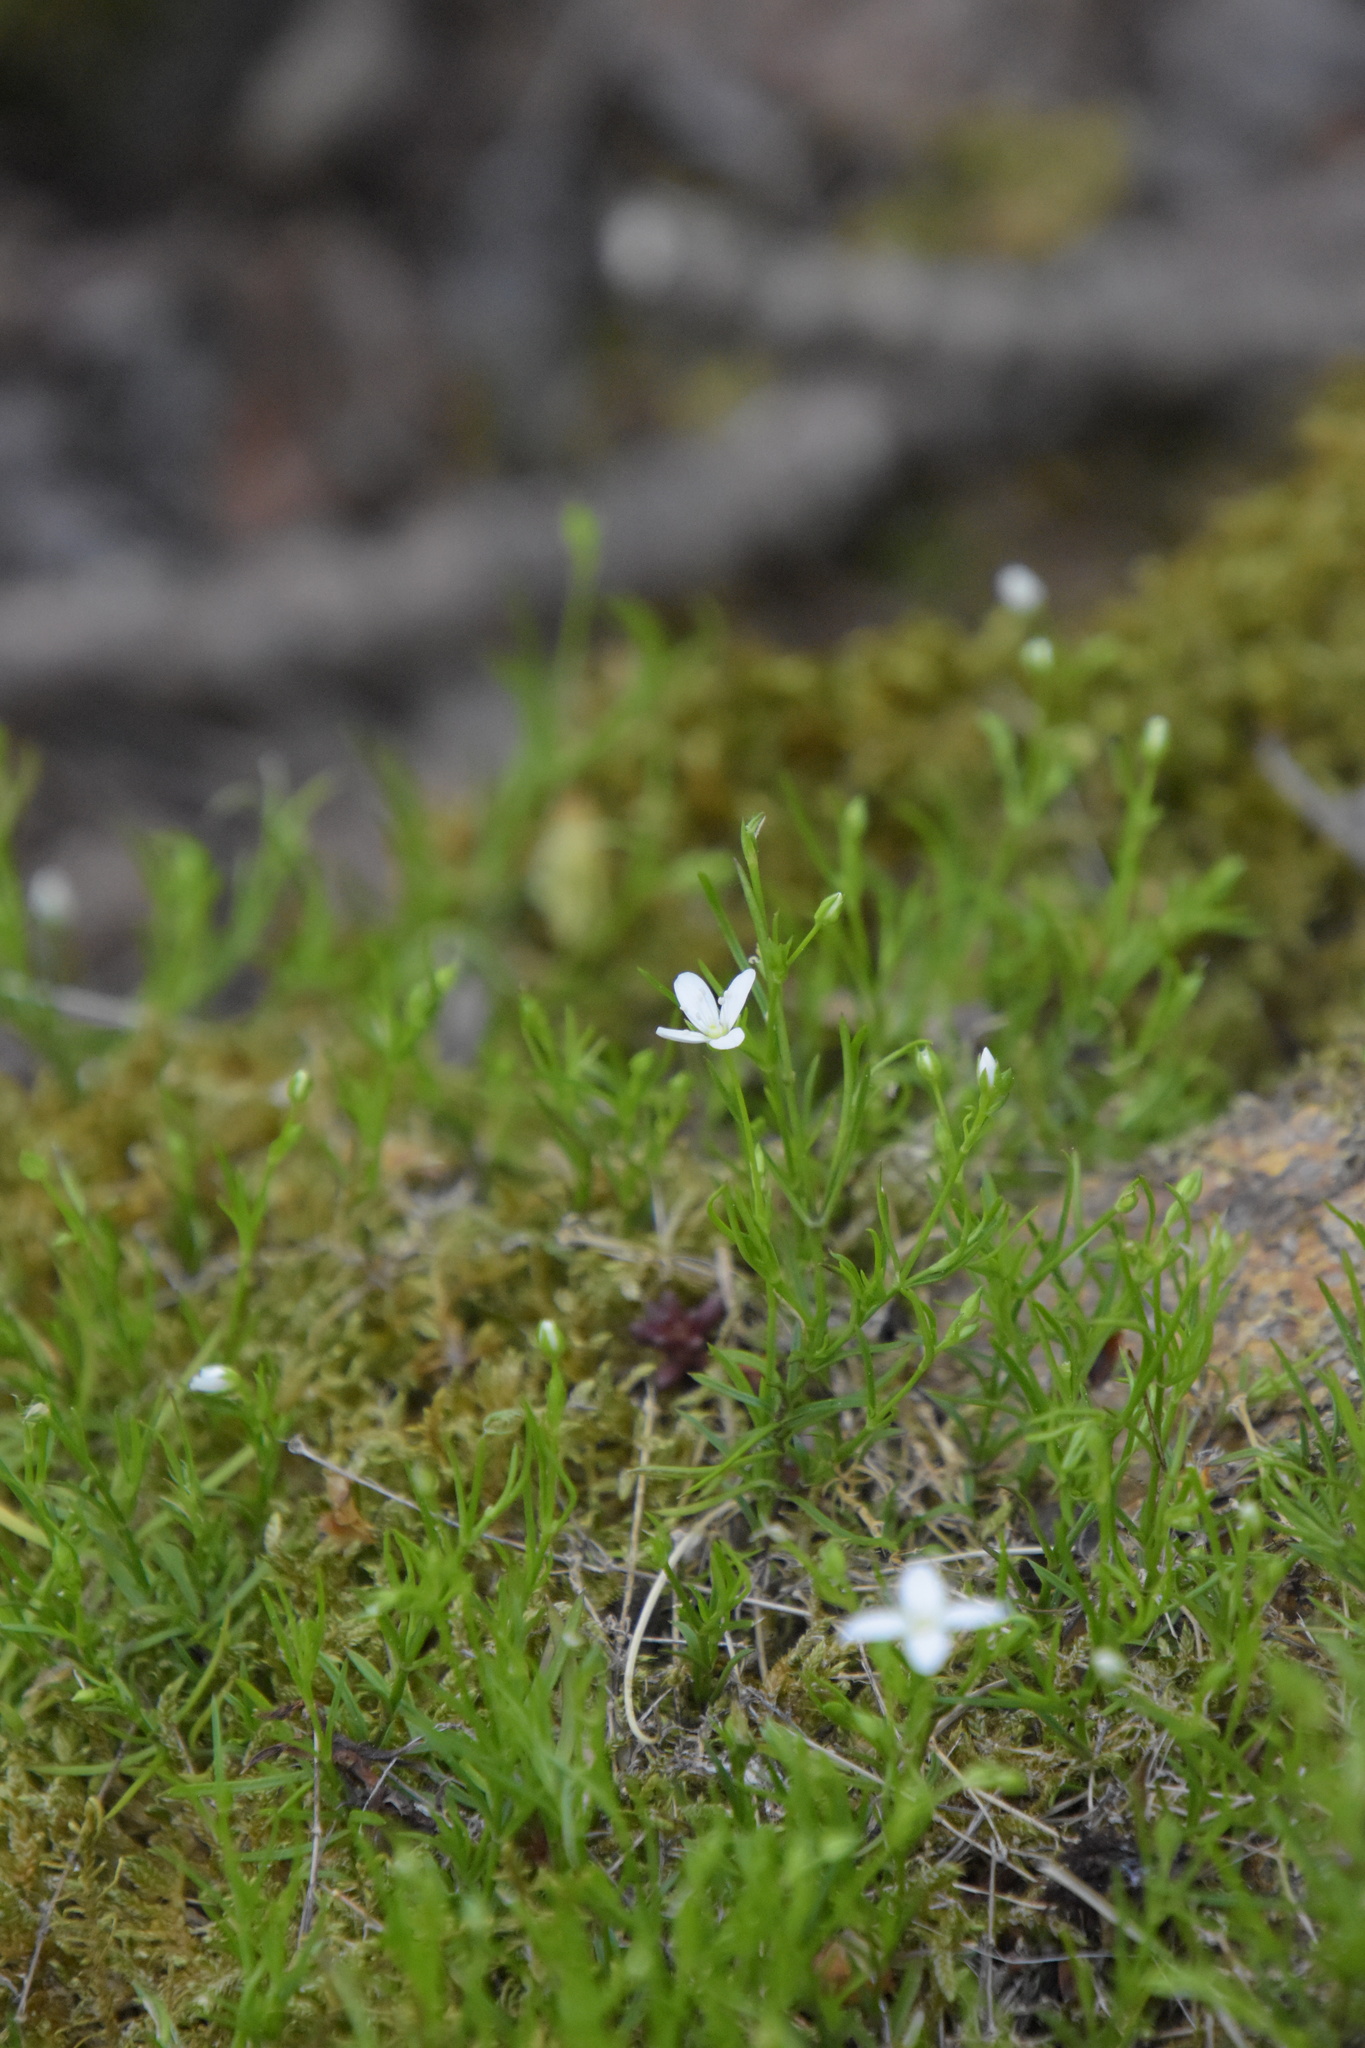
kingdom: Plantae
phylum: Tracheophyta
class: Magnoliopsida
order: Caryophyllales
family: Caryophyllaceae
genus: Moehringia
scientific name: Moehringia muscosa
